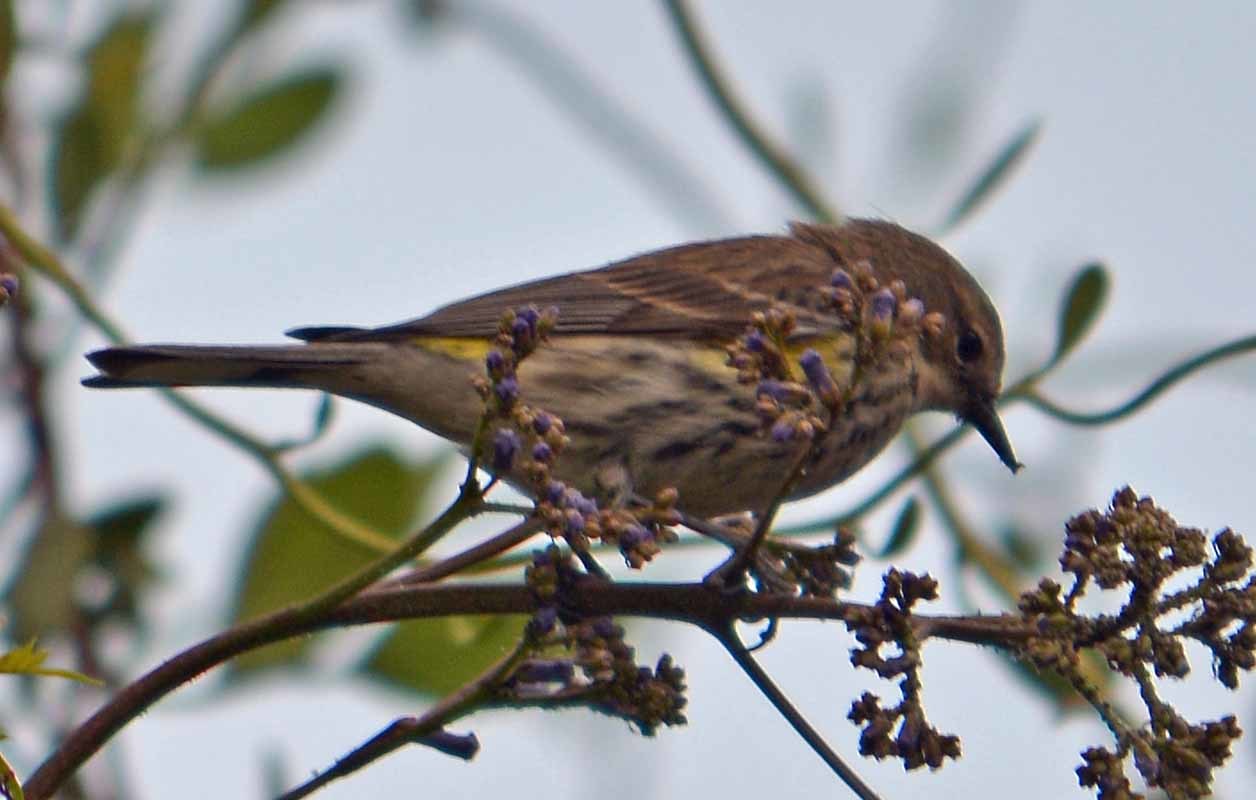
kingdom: Animalia
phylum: Chordata
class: Aves
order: Passeriformes
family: Parulidae
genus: Setophaga
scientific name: Setophaga coronata
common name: Myrtle warbler
